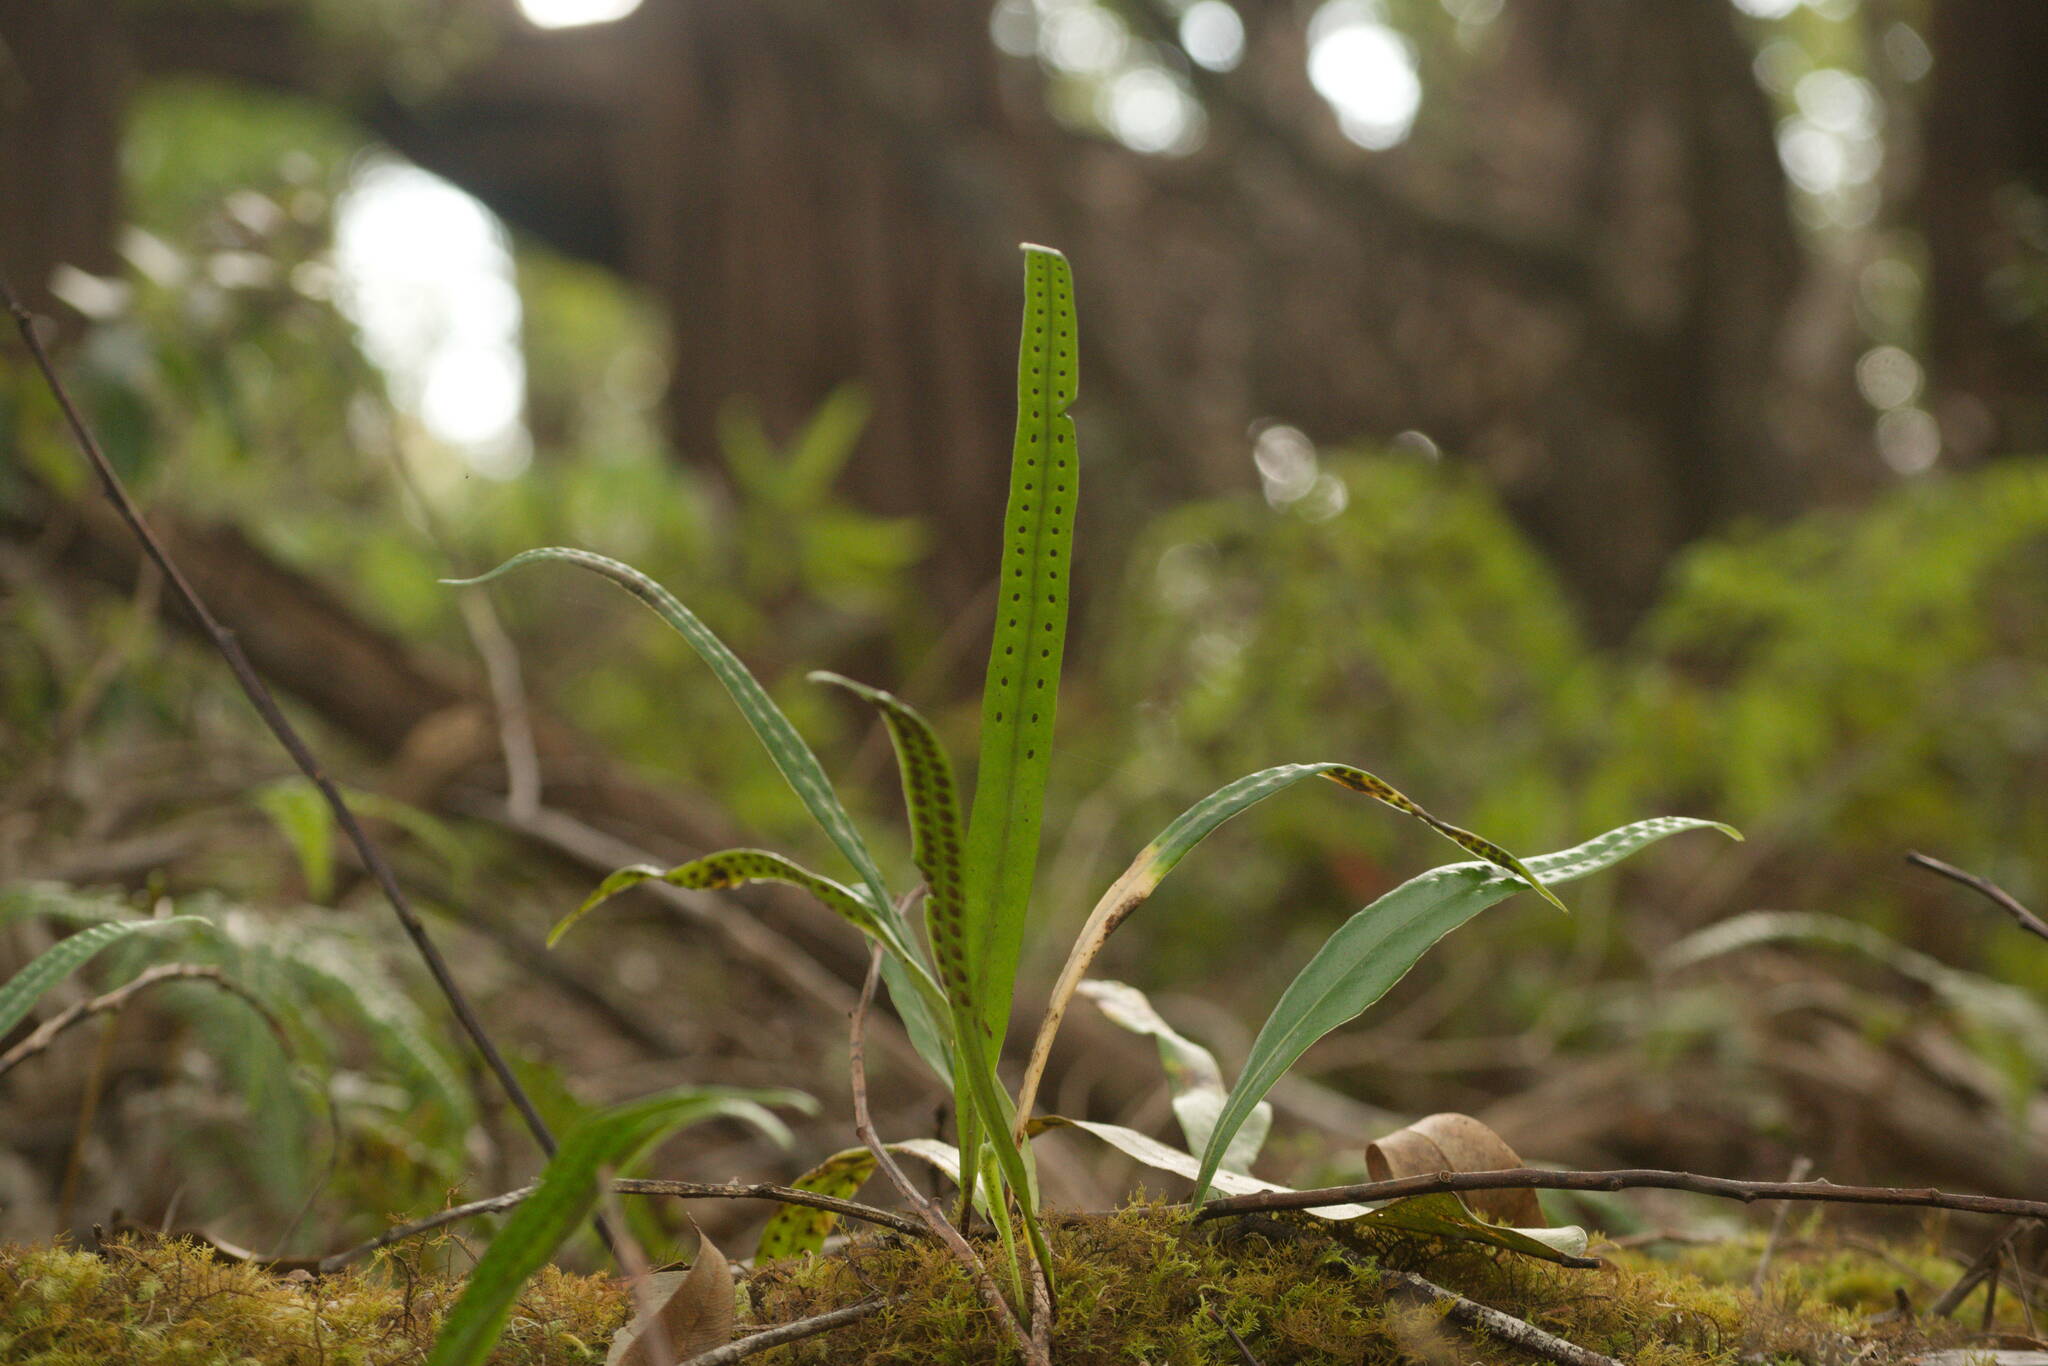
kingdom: Plantae
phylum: Tracheophyta
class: Polypodiopsida
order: Polypodiales
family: Polypodiaceae
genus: Lepisorus
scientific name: Lepisorus thunbergianus
